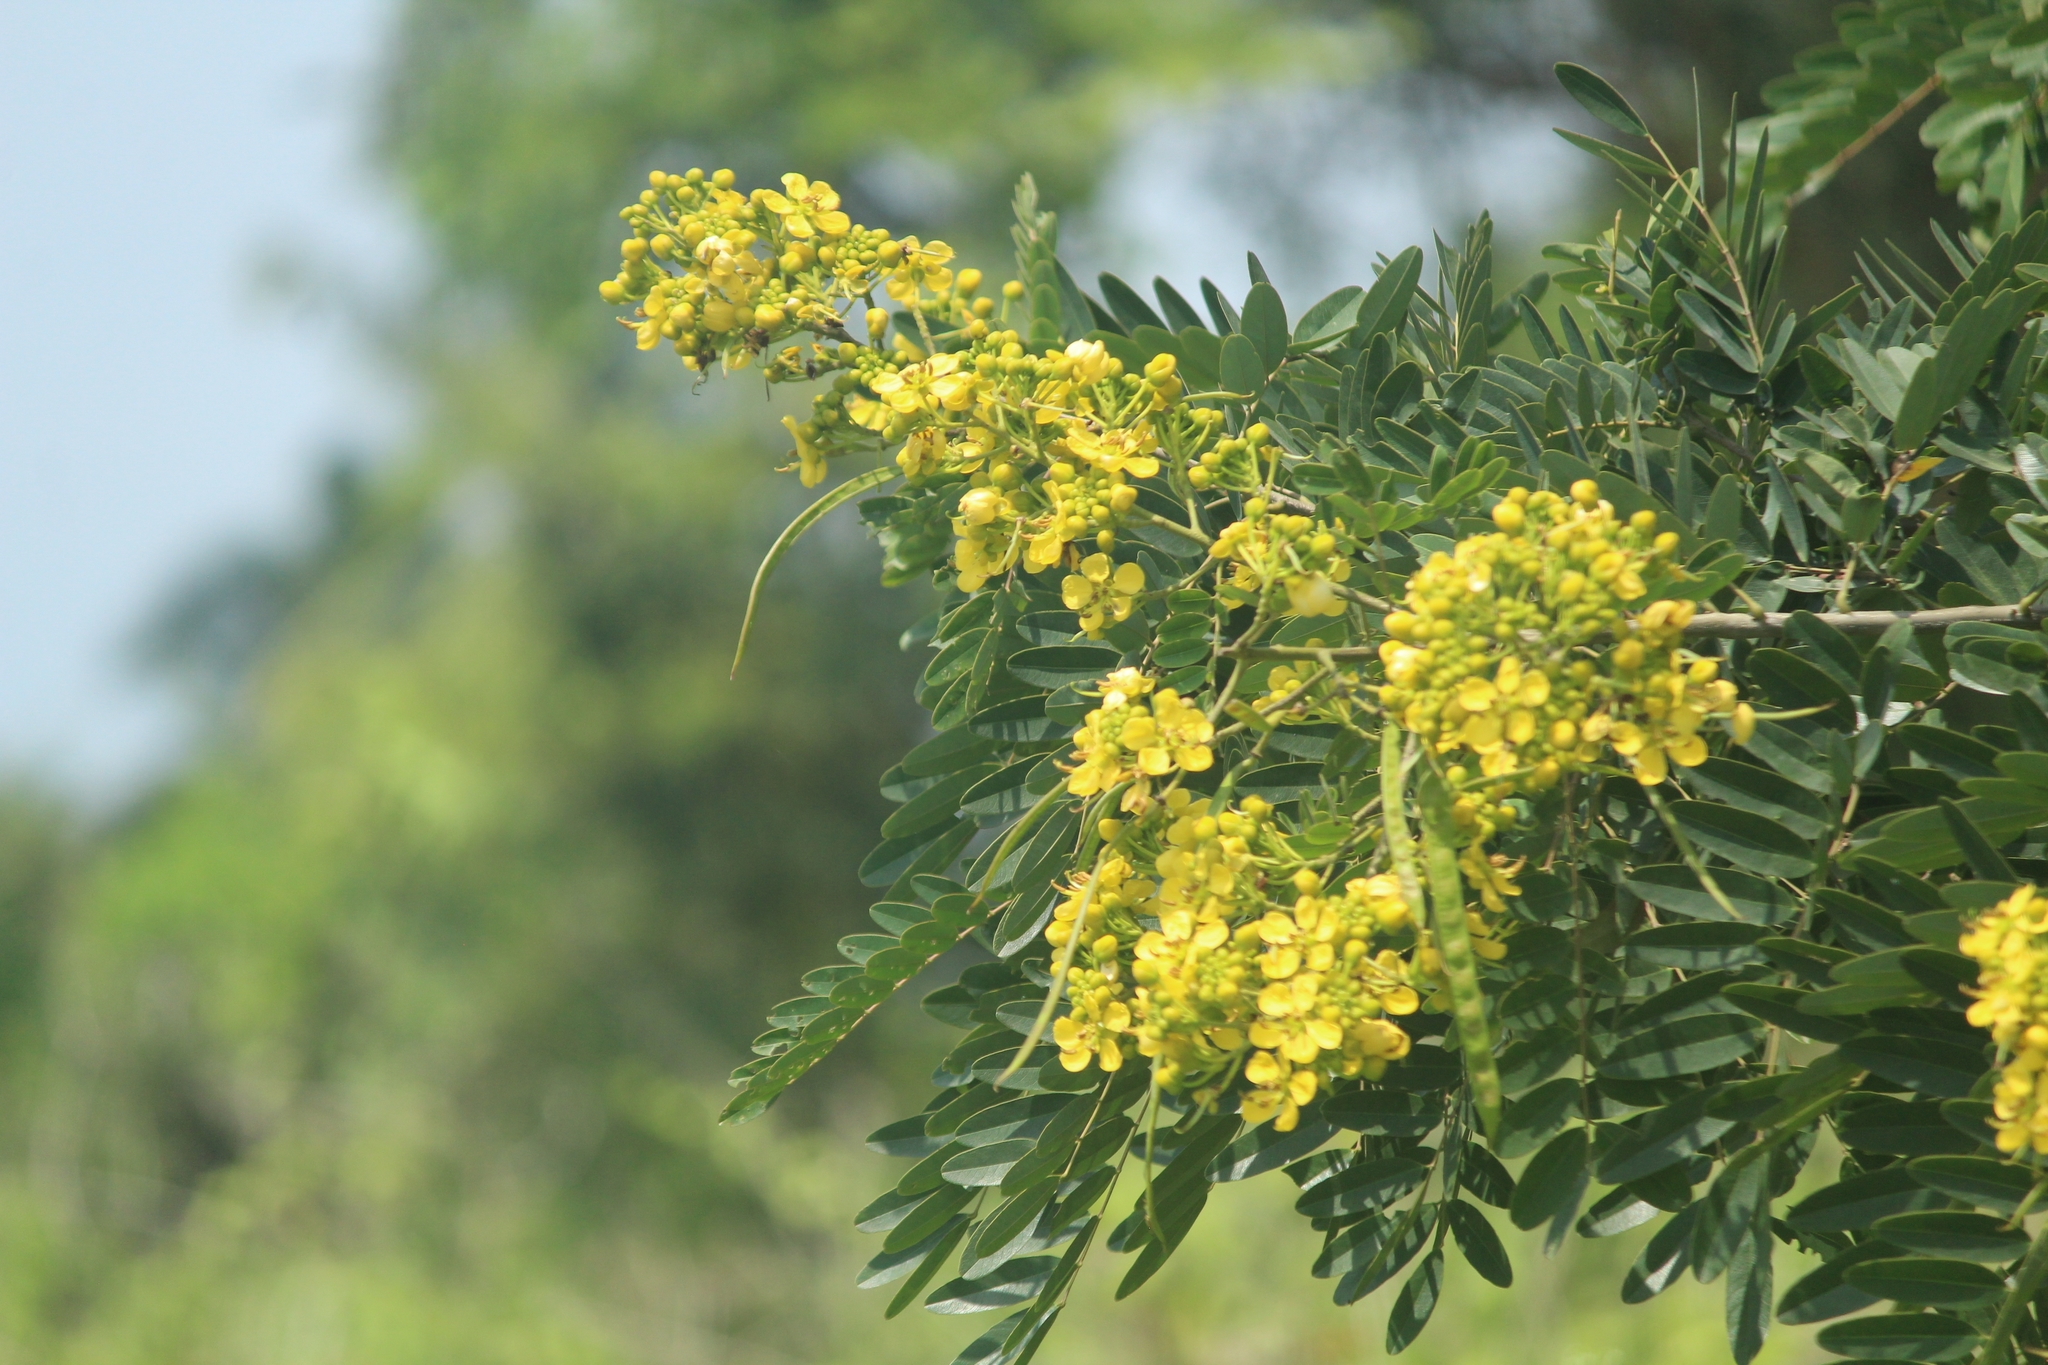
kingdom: Plantae
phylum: Tracheophyta
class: Magnoliopsida
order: Fabales
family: Fabaceae
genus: Senna
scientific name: Senna siamea
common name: Siamese cassia
